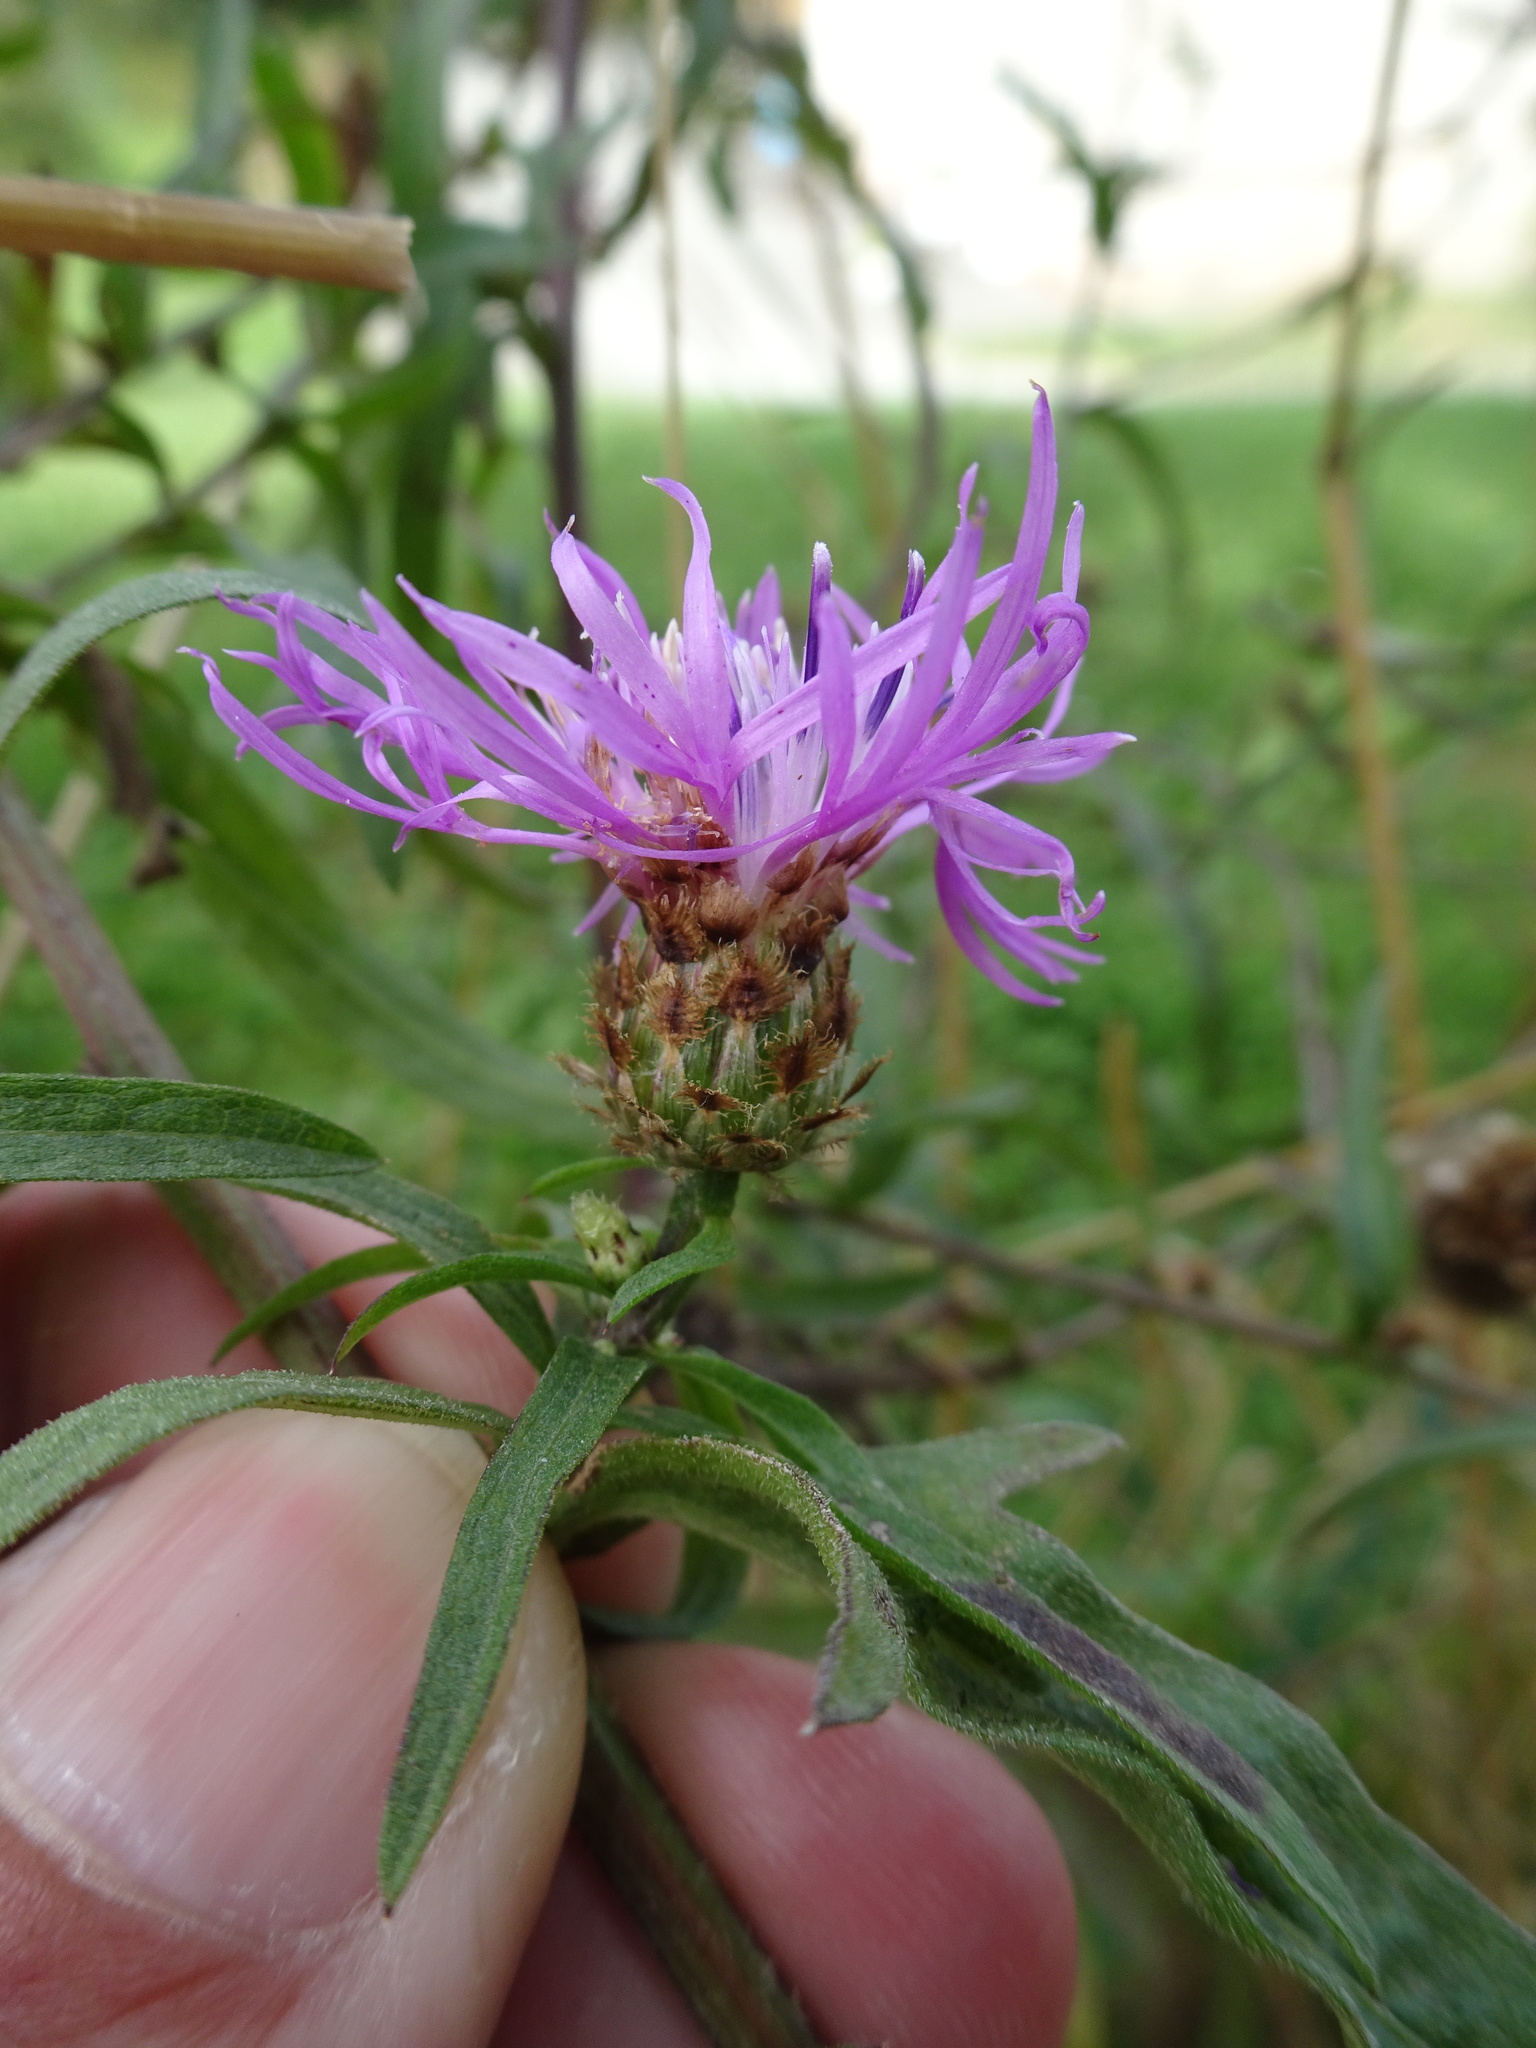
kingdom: Plantae
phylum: Tracheophyta
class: Magnoliopsida
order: Asterales
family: Asteraceae
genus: Centaurea
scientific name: Centaurea nigra
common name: Lesser knapweed
